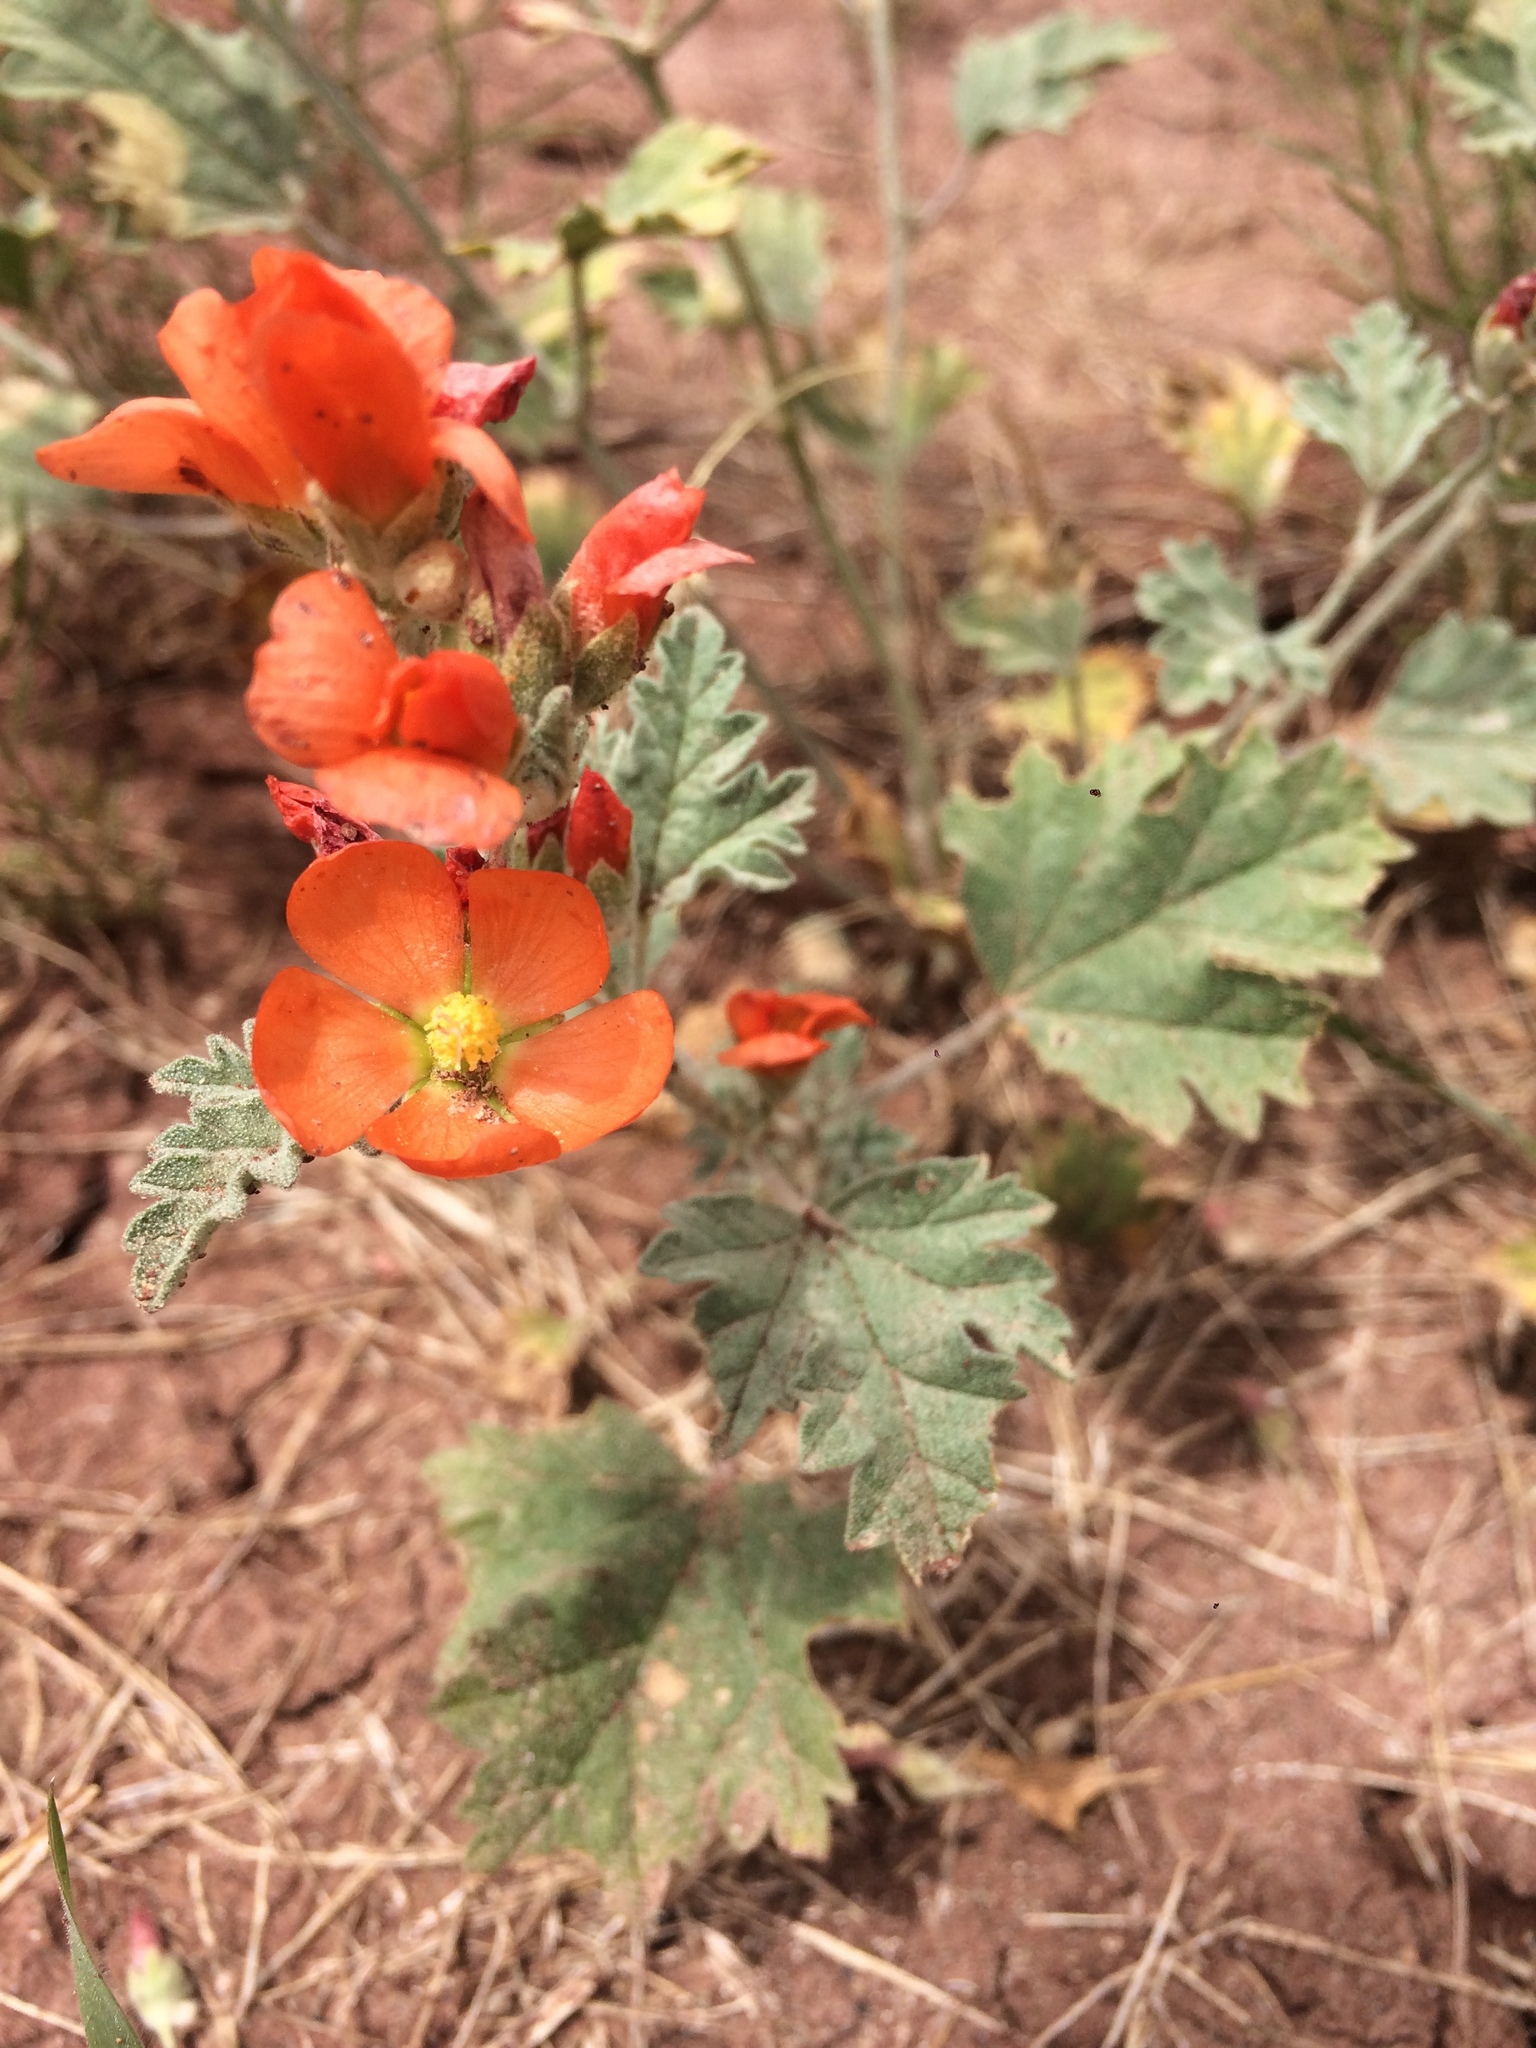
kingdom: Plantae
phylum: Tracheophyta
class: Magnoliopsida
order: Malvales
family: Malvaceae
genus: Sphaeralcea
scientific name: Sphaeralcea munroana
